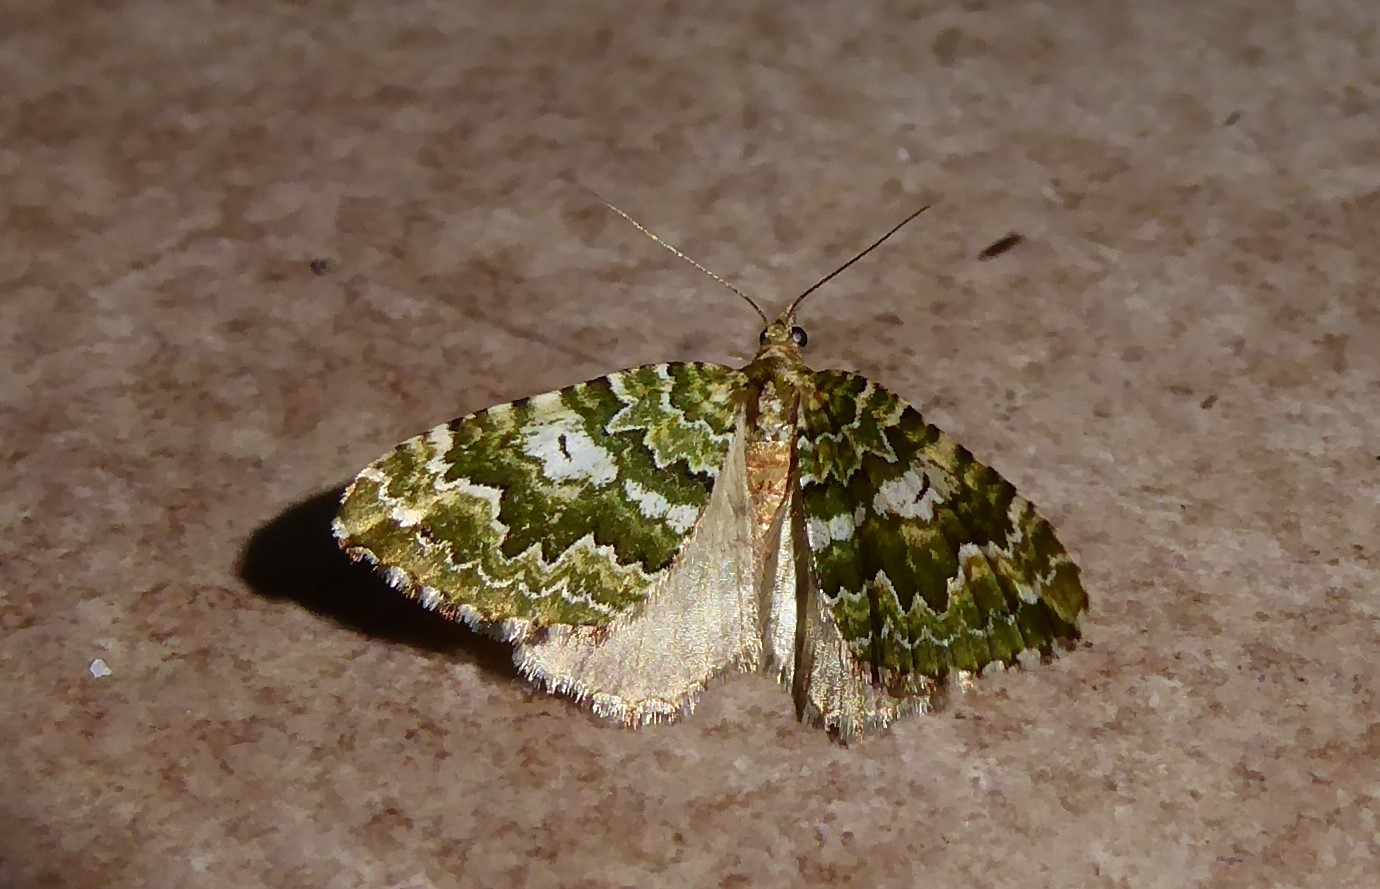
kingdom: Animalia
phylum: Arthropoda
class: Insecta
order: Lepidoptera
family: Geometridae
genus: Asaphodes
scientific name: Asaphodes beata
